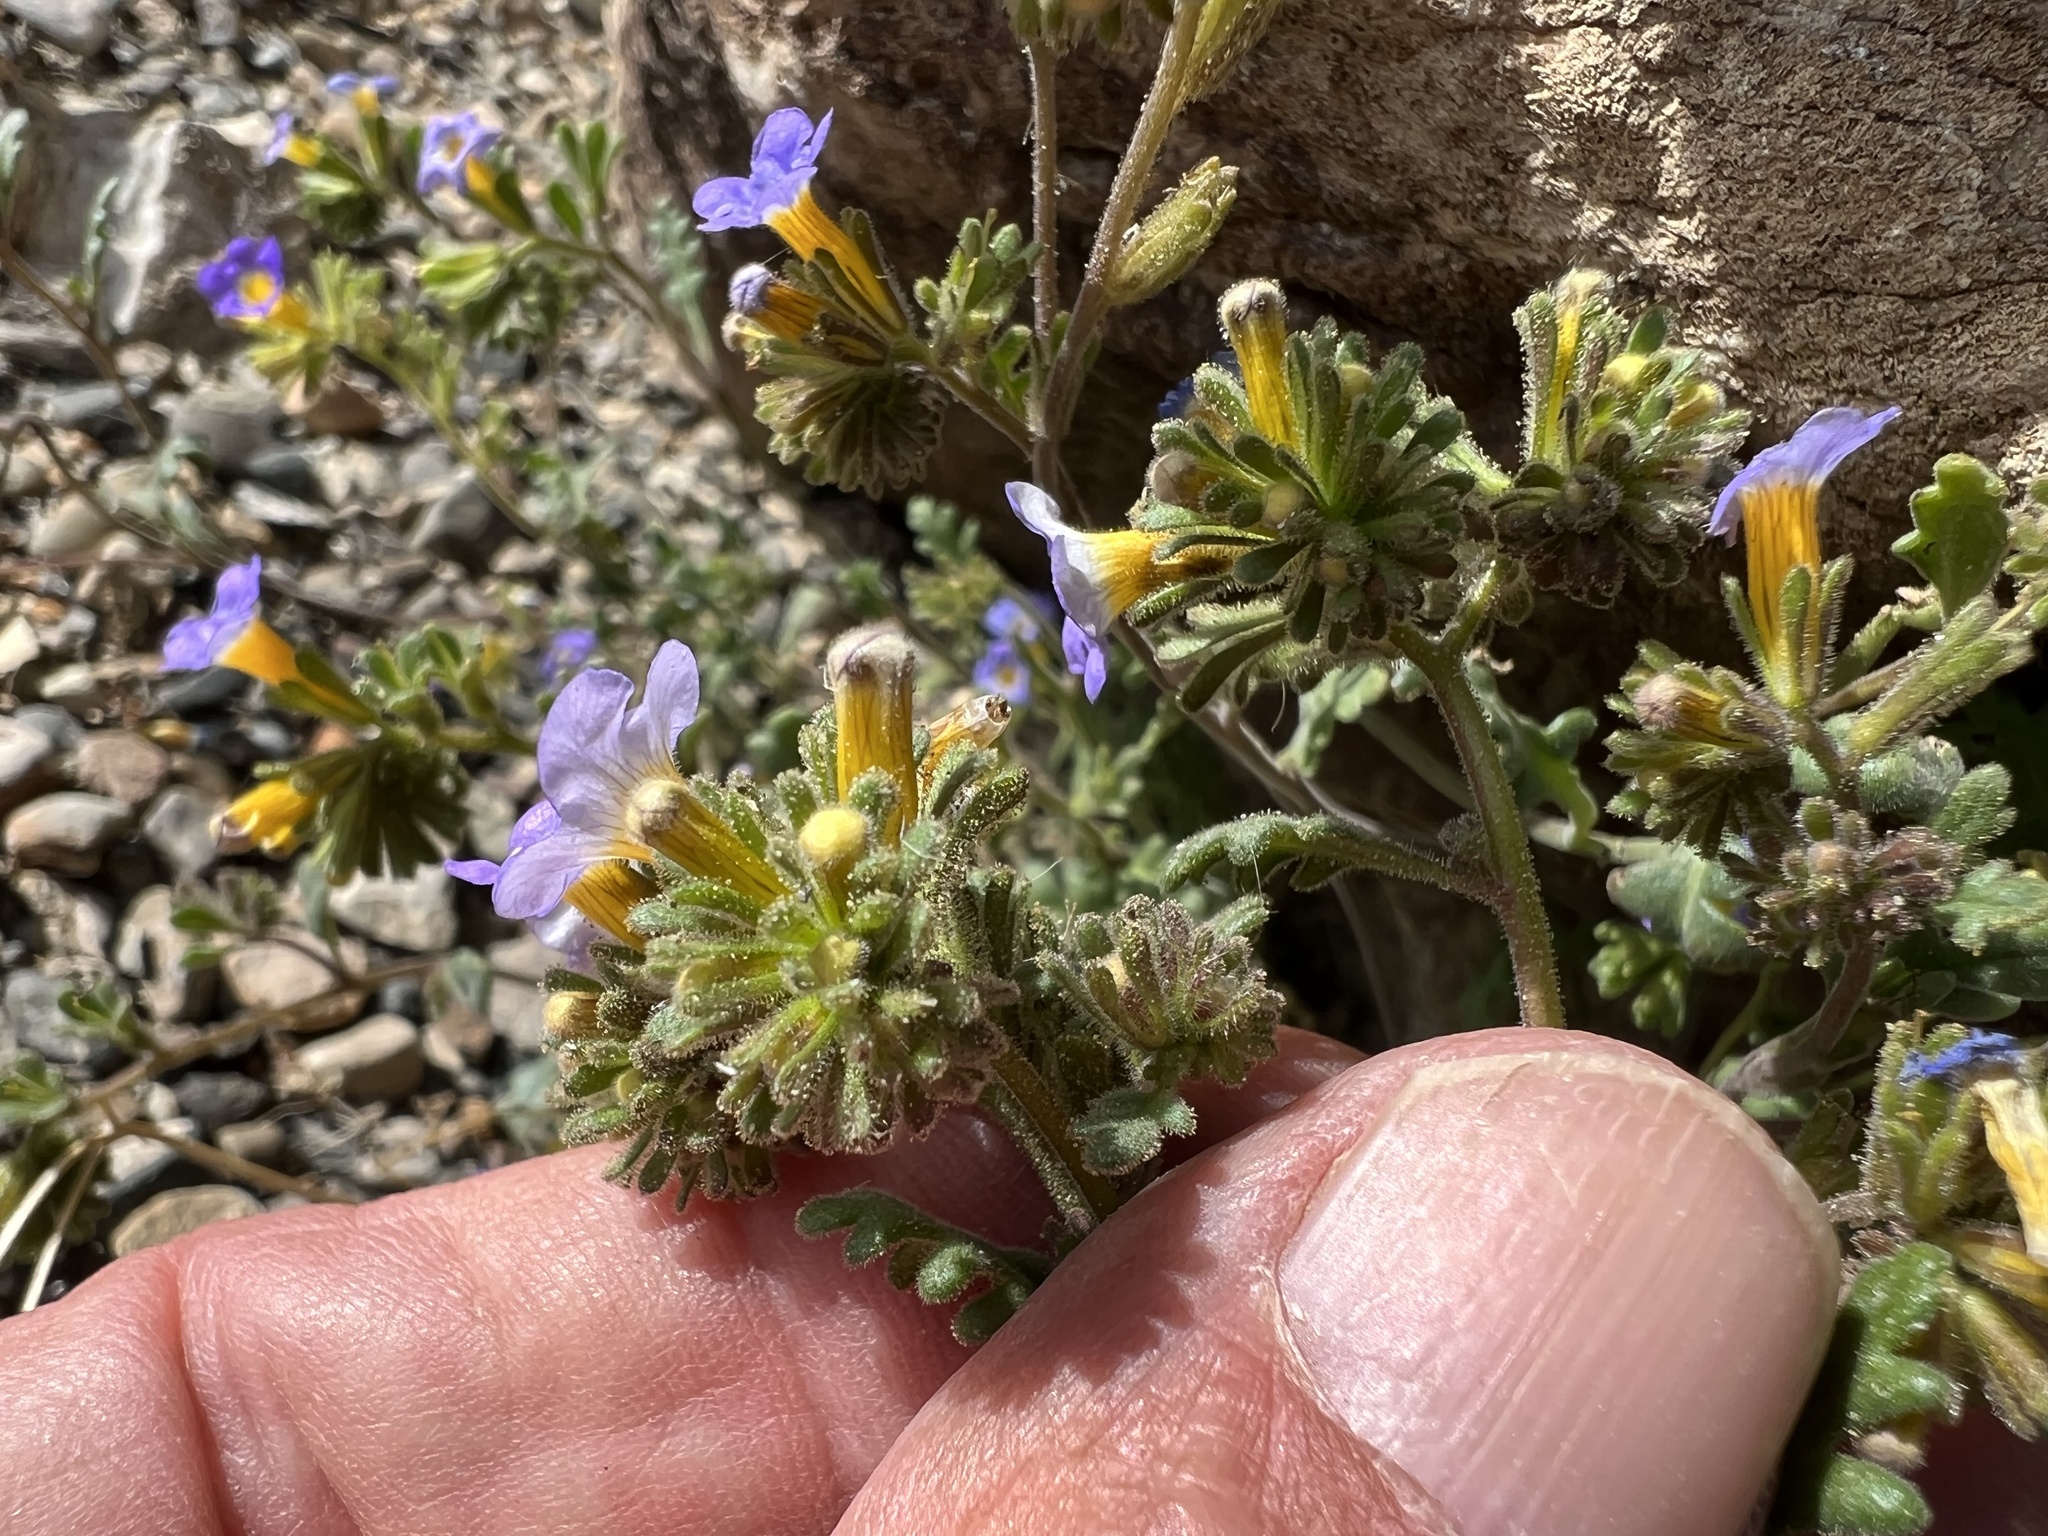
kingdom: Plantae
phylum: Tracheophyta
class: Magnoliopsida
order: Boraginales
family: Hydrophyllaceae
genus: Phacelia
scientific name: Phacelia fremontii
